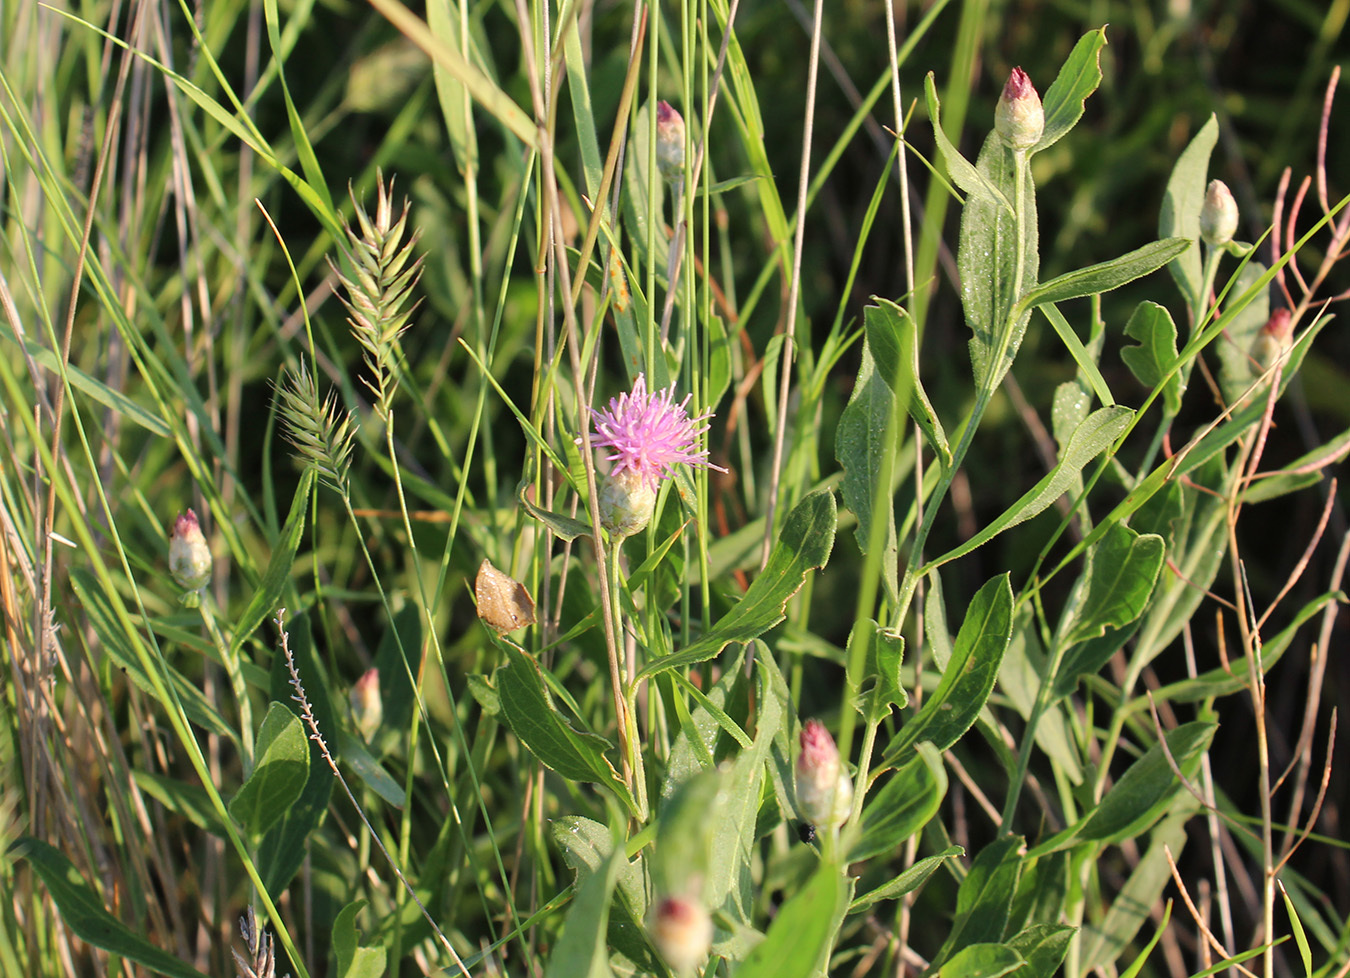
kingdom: Plantae
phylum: Tracheophyta
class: Magnoliopsida
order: Asterales
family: Asteraceae
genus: Leuzea
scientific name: Leuzea repens
